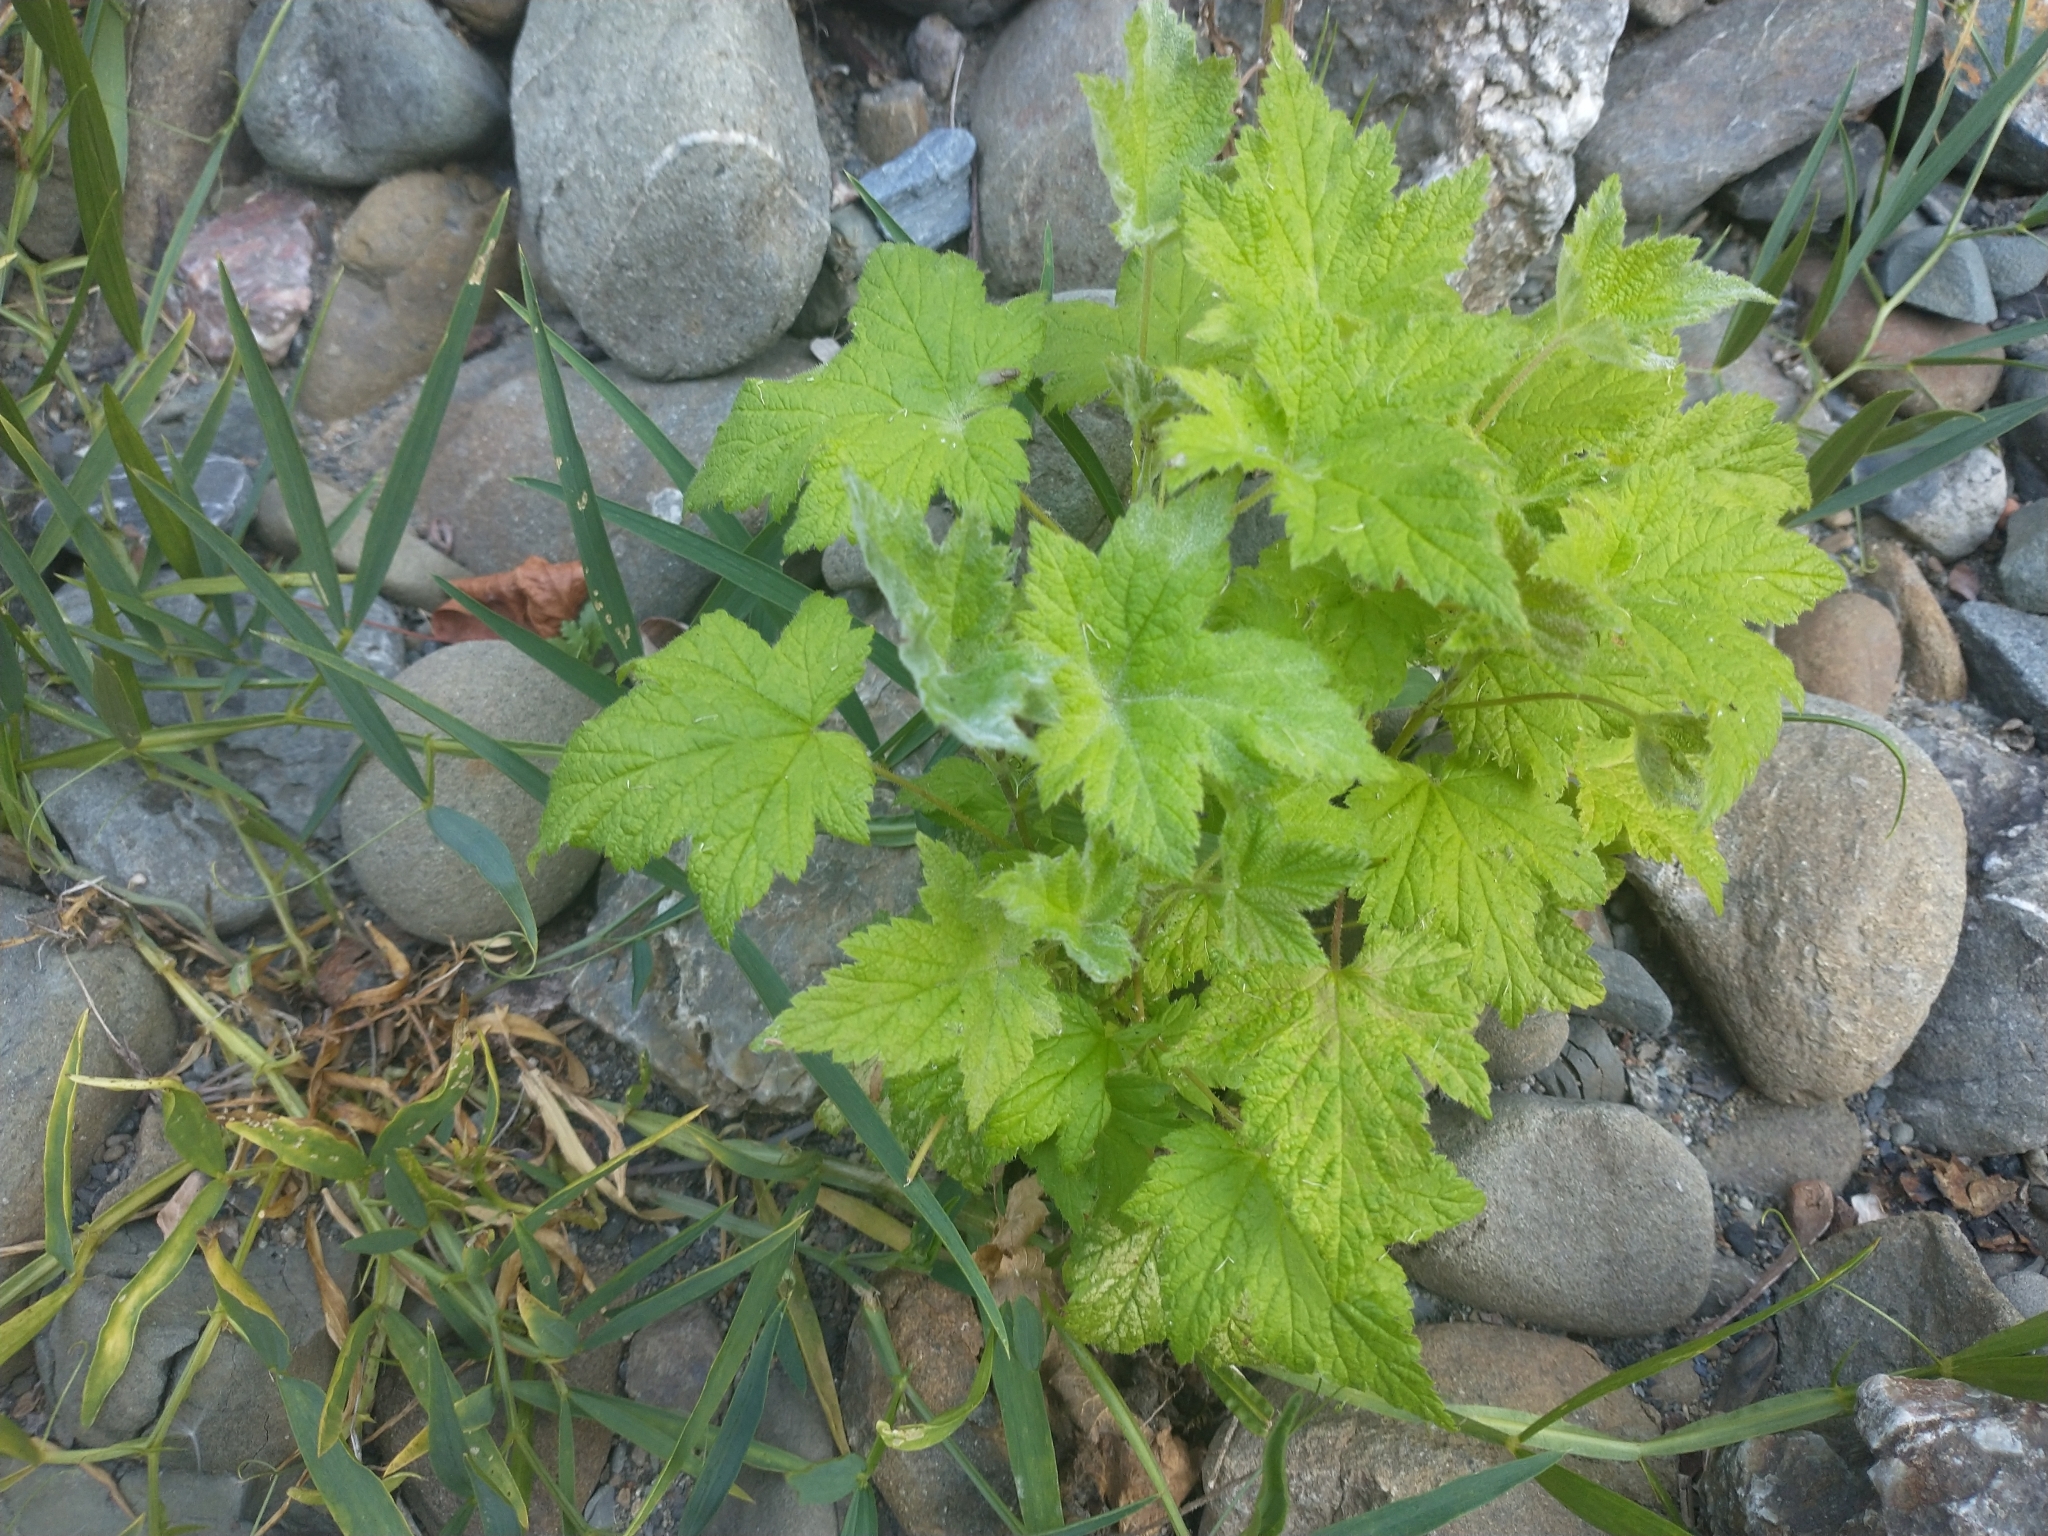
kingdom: Plantae
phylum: Tracheophyta
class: Magnoliopsida
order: Rosales
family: Rosaceae
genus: Rubus
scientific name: Rubus parviflorus
